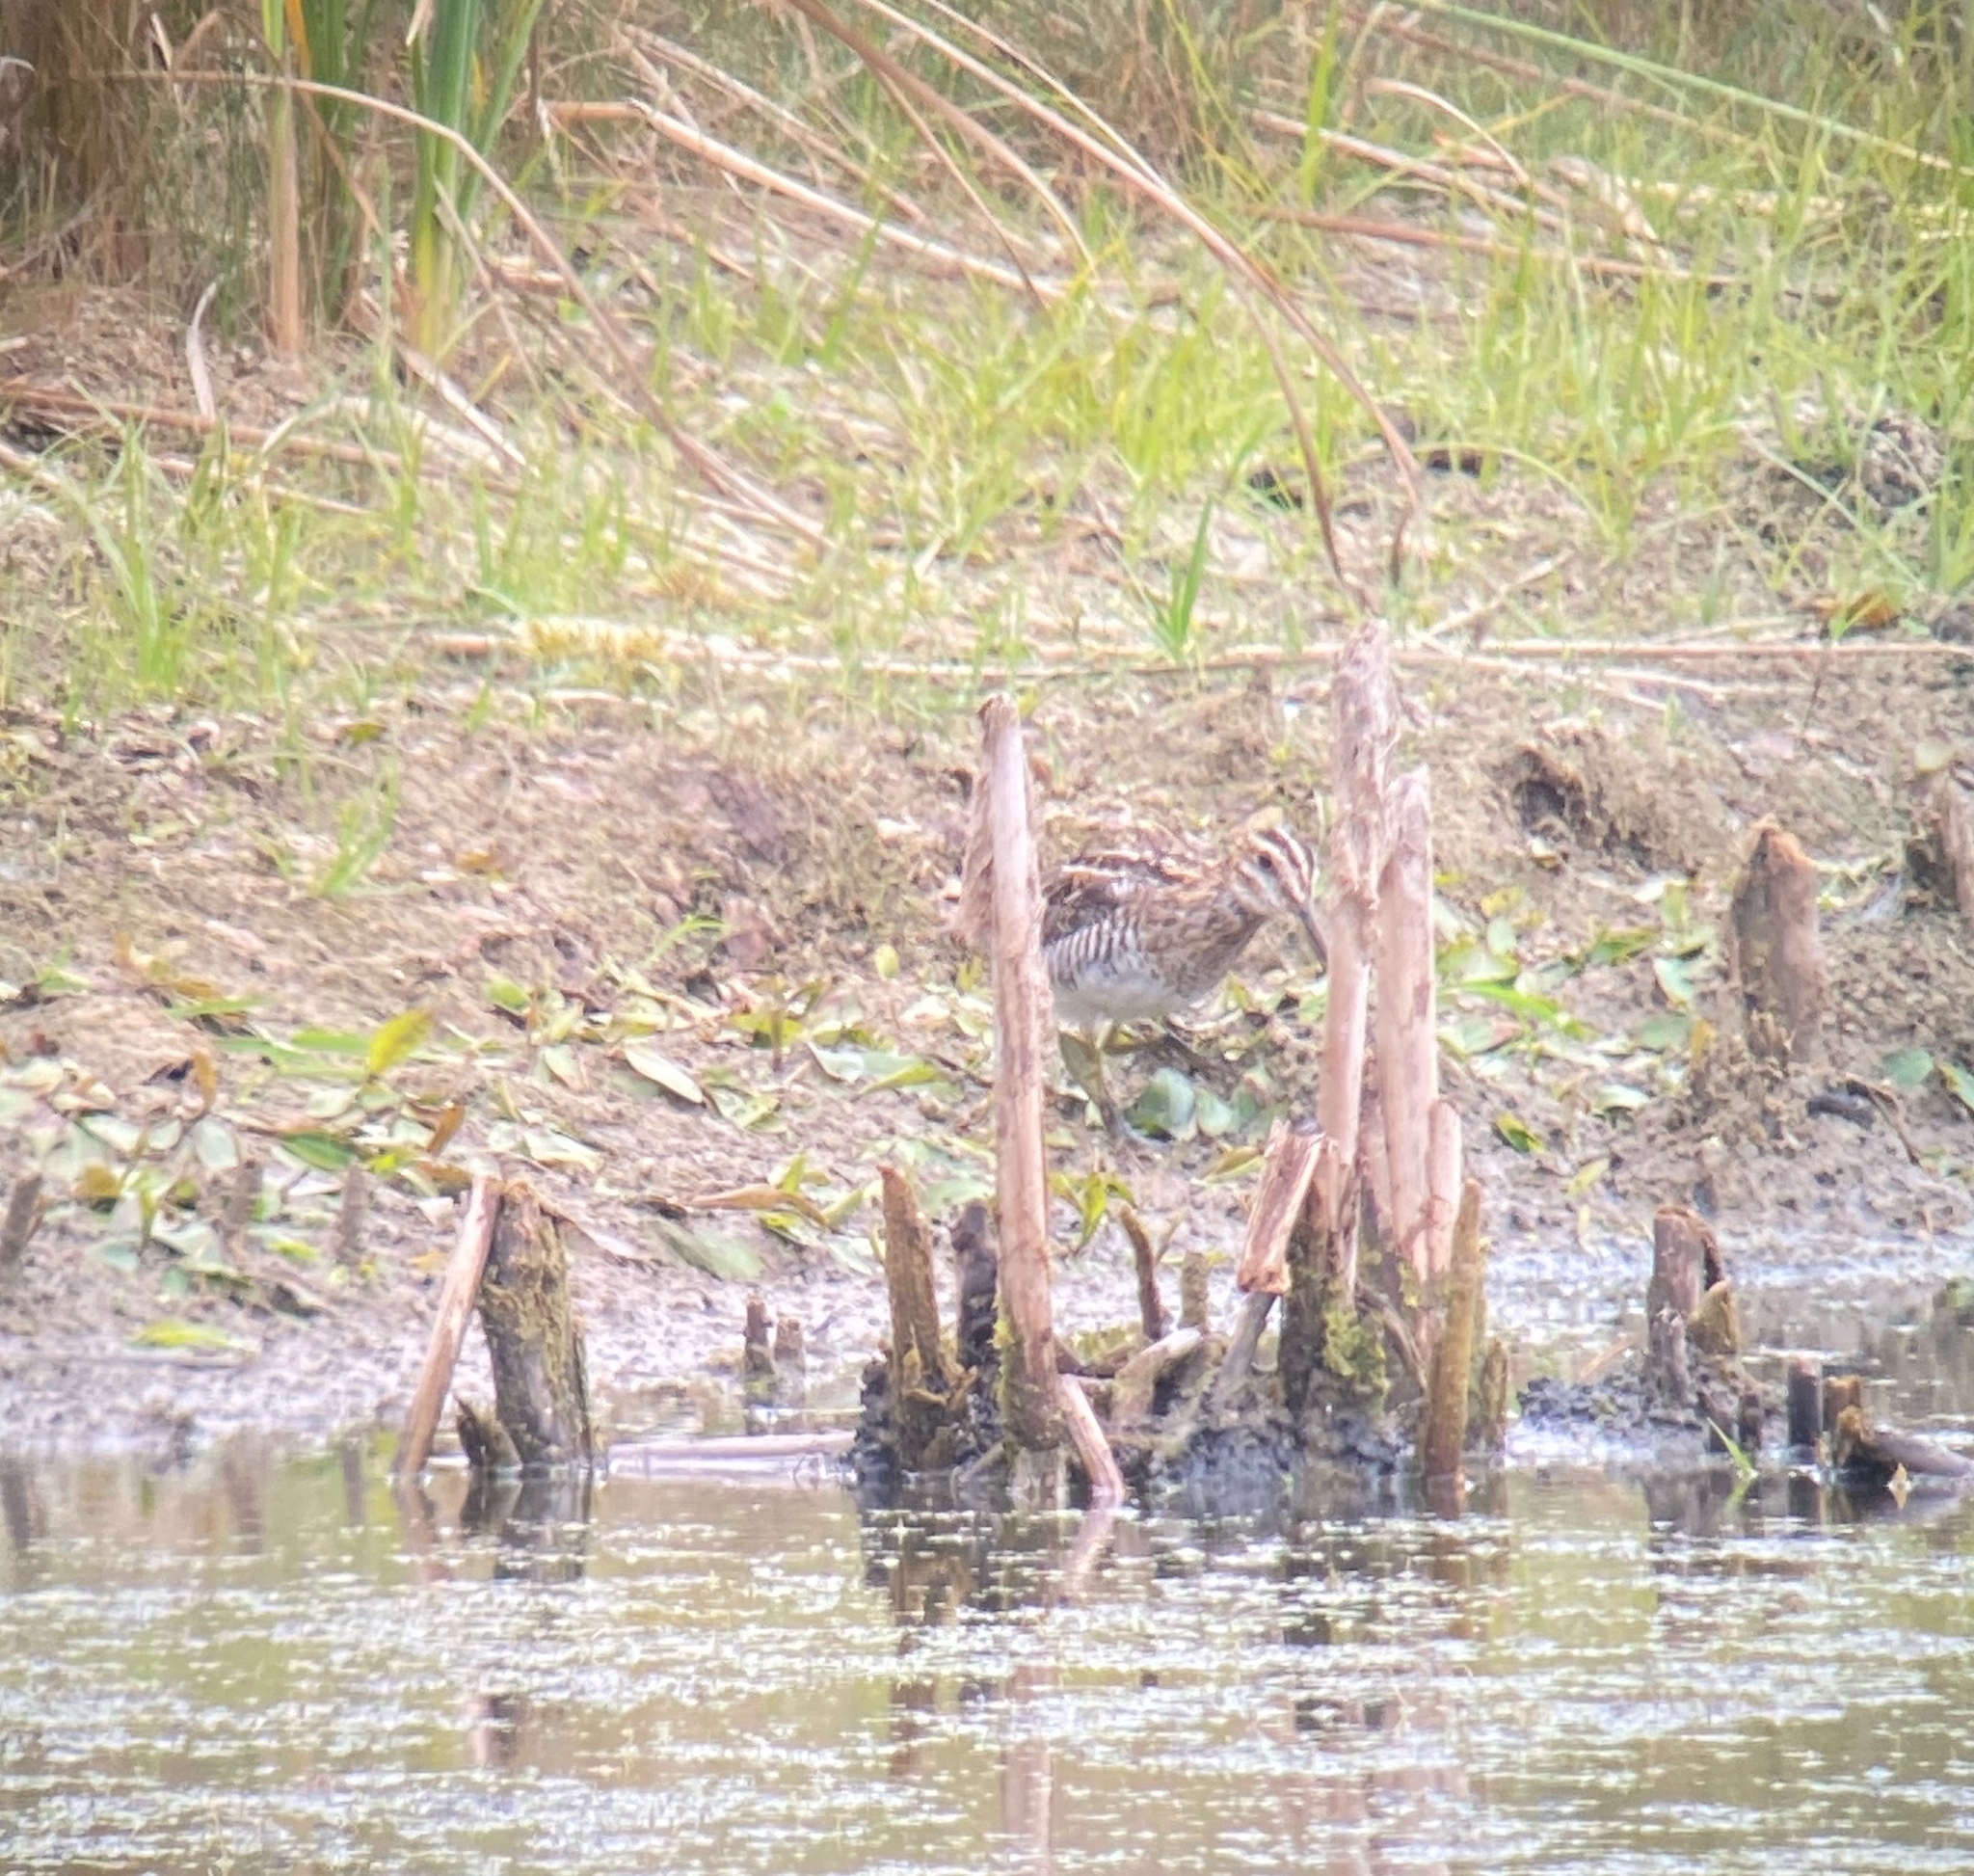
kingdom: Animalia
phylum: Chordata
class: Aves
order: Charadriiformes
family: Scolopacidae
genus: Gallinago
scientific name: Gallinago delicata
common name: Wilson's snipe
